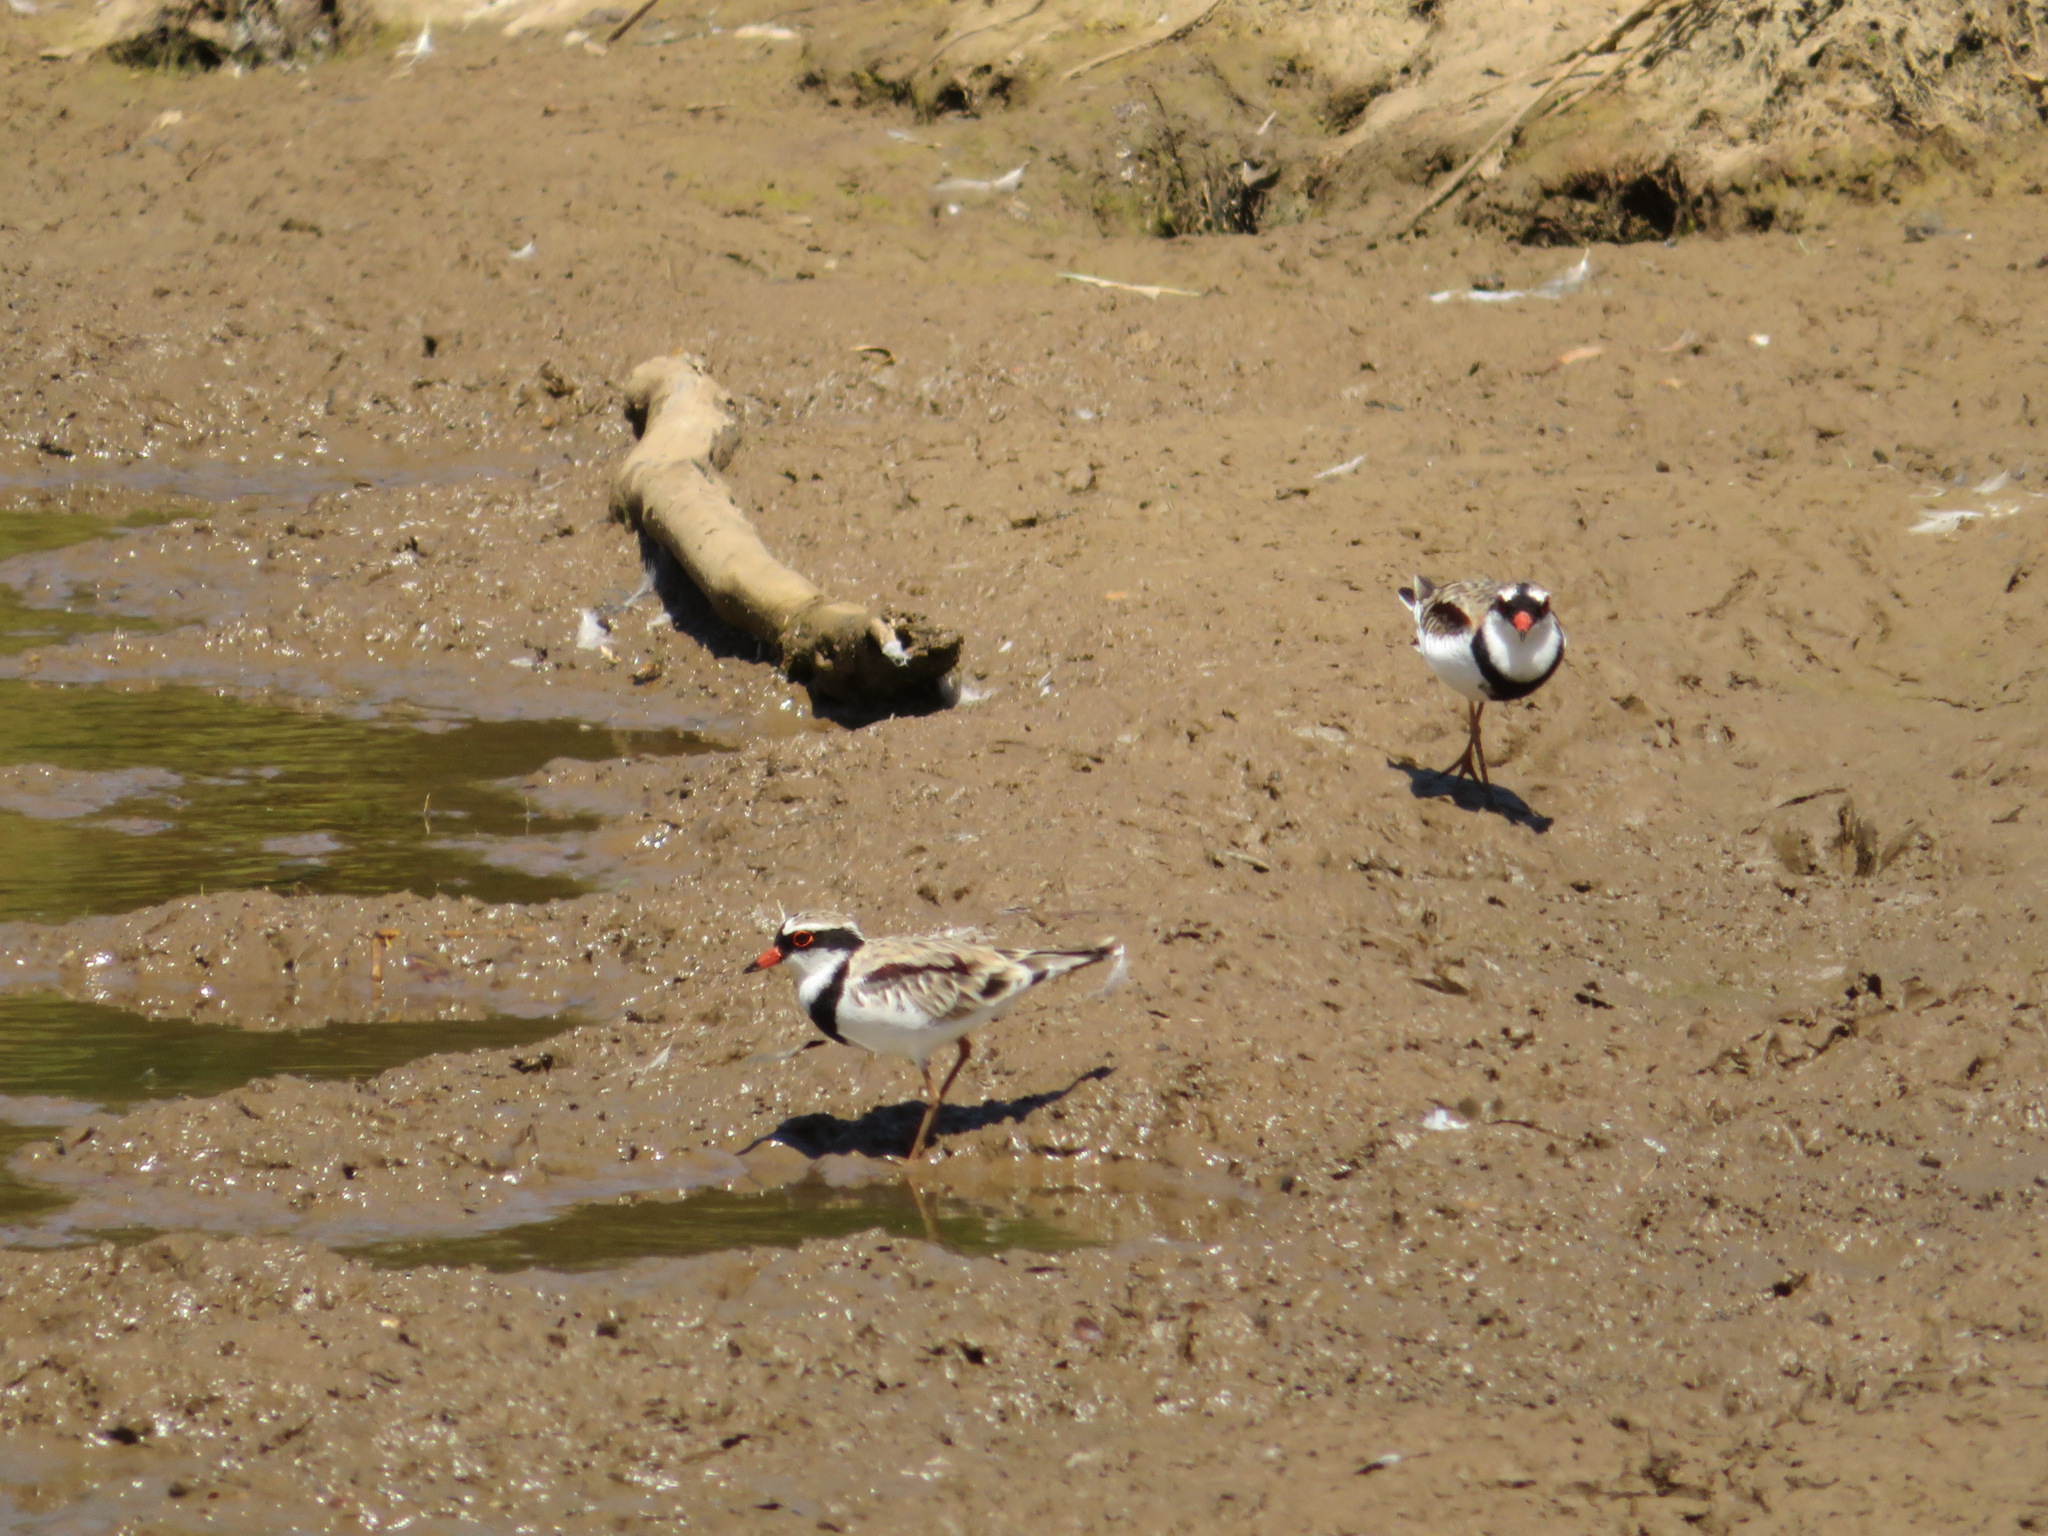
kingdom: Animalia
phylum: Chordata
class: Aves
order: Charadriiformes
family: Charadriidae
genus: Elseyornis
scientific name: Elseyornis melanops
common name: Black-fronted dotterel
